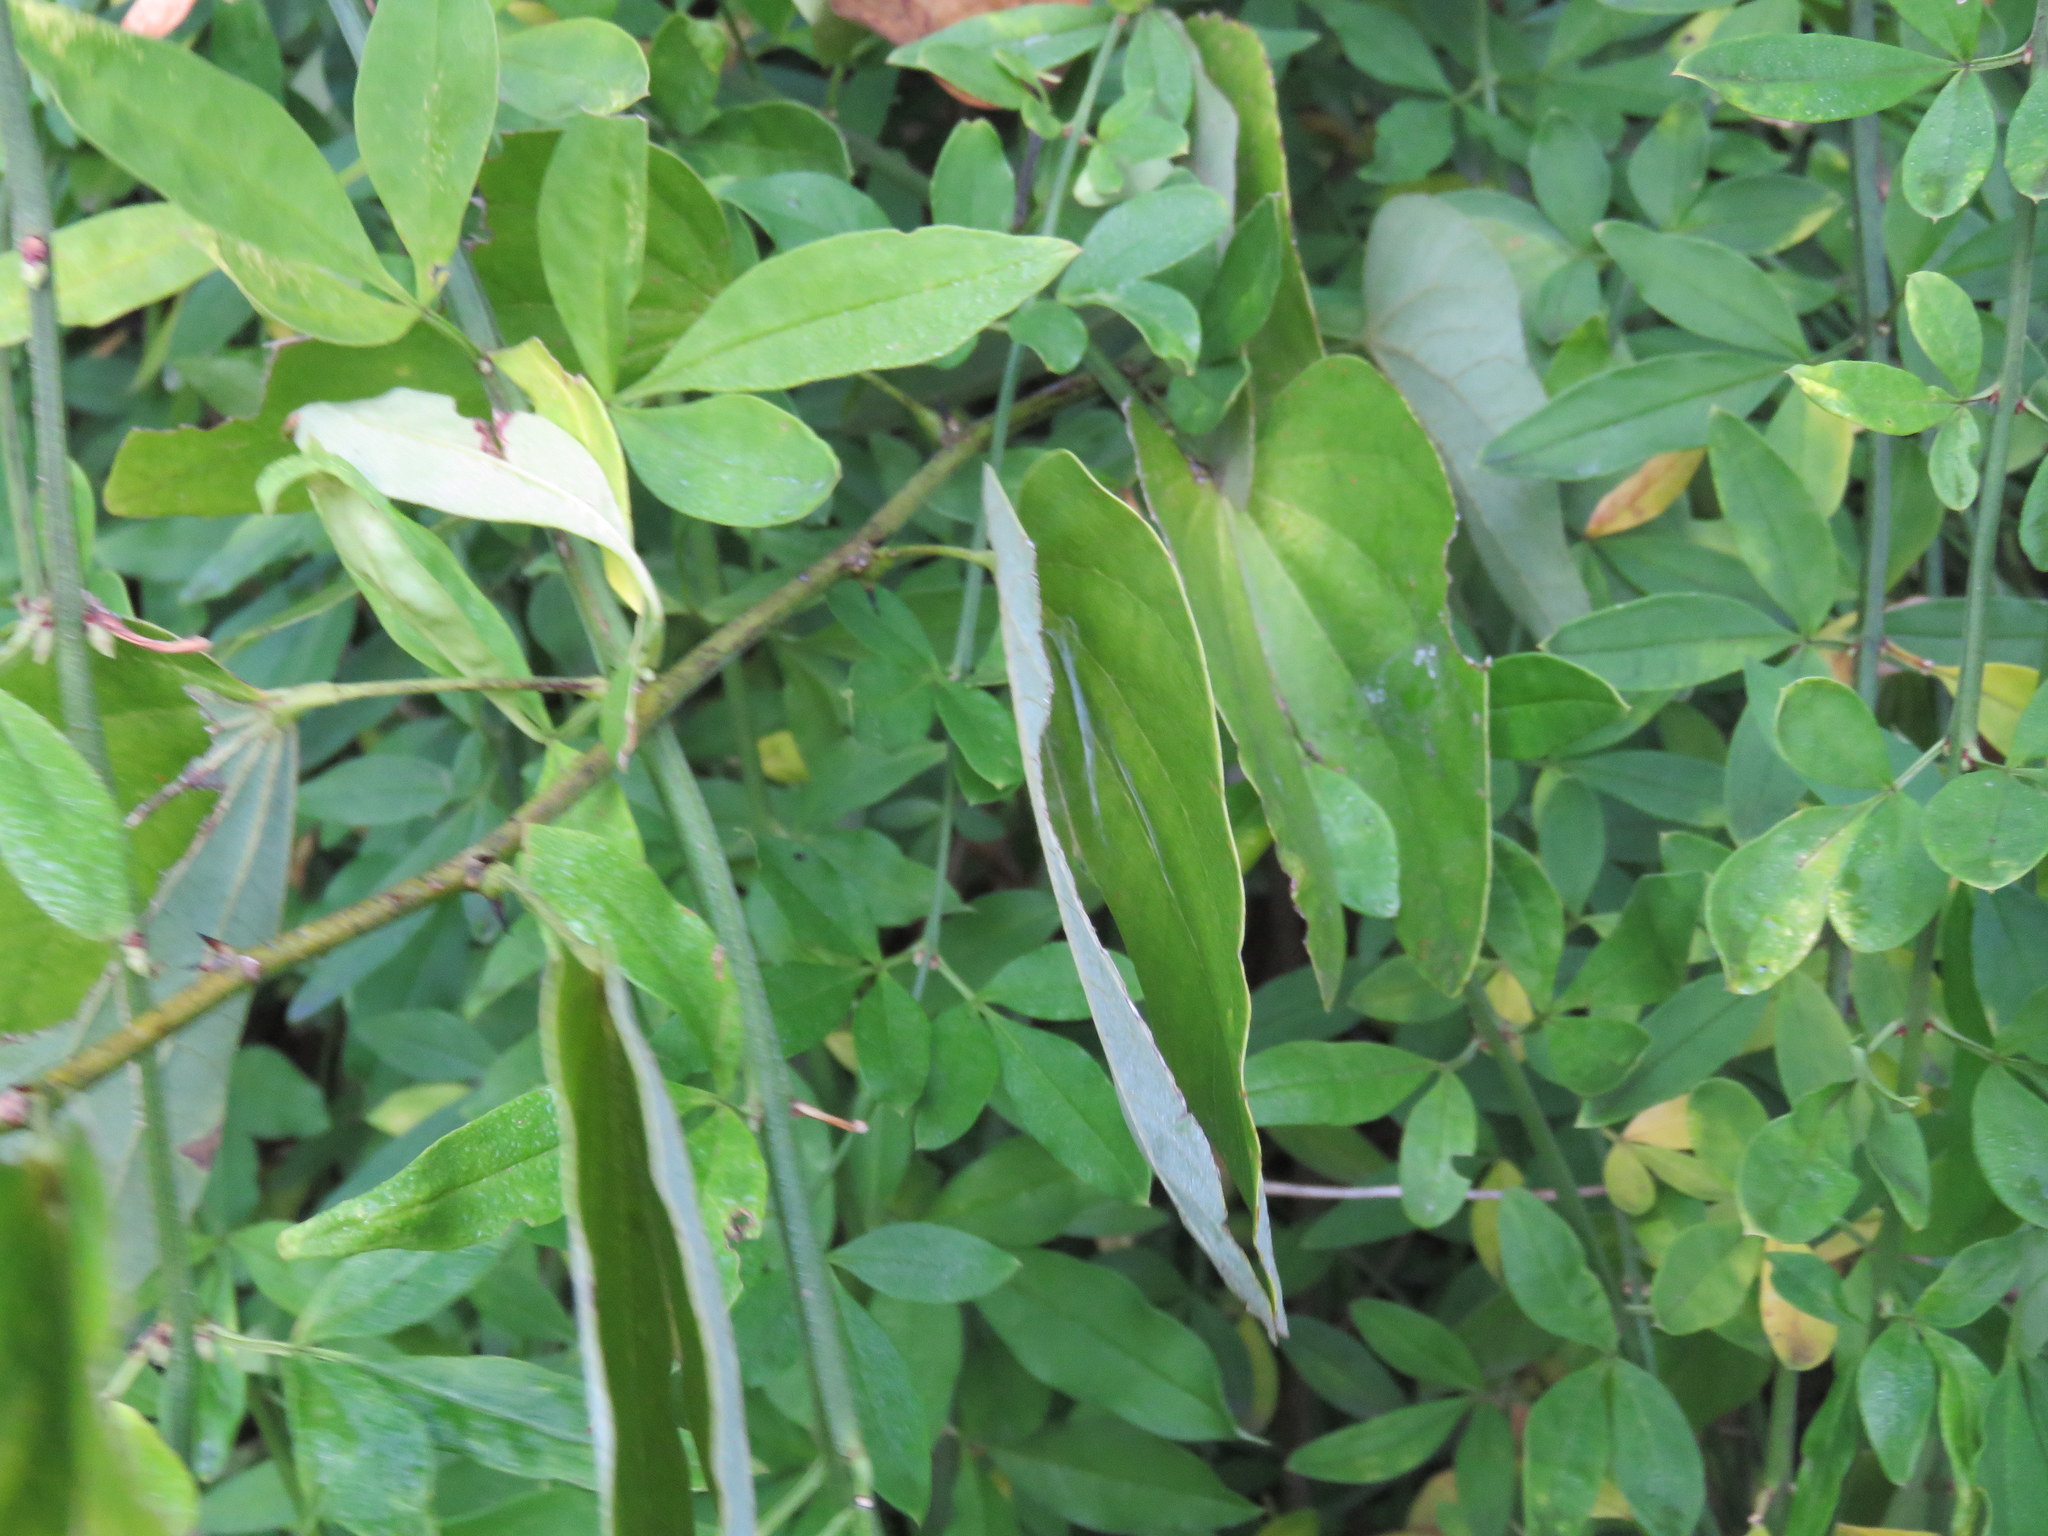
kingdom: Plantae
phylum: Tracheophyta
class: Magnoliopsida
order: Fabales
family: Fabaceae
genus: Bauhinia
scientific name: Bauhinia forficata
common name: Orchid tree
